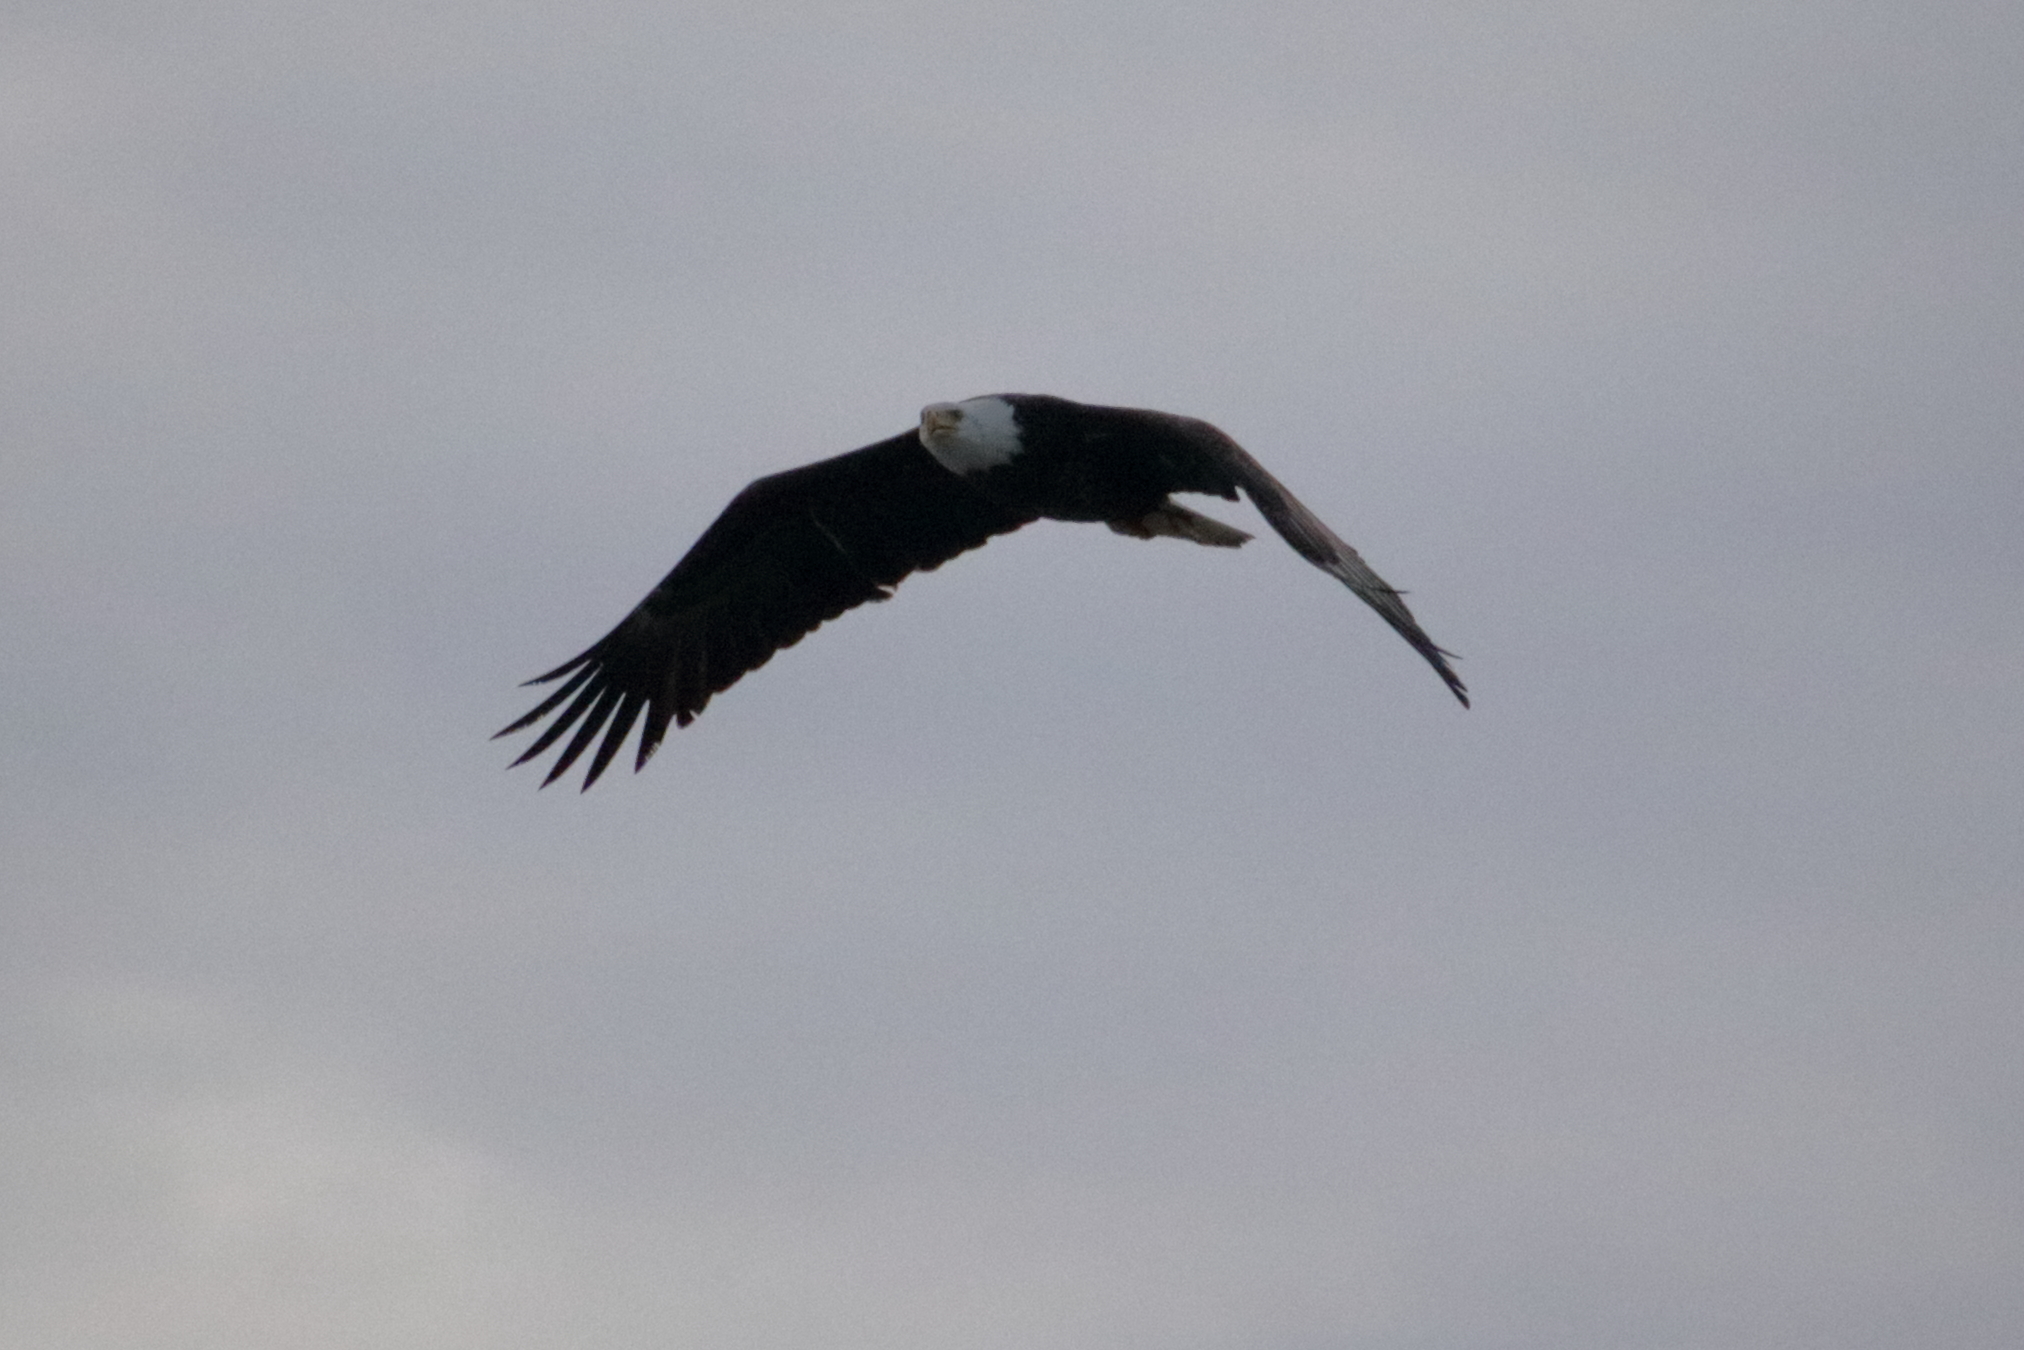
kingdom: Animalia
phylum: Chordata
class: Aves
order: Accipitriformes
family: Accipitridae
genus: Haliaeetus
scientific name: Haliaeetus leucocephalus
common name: Bald eagle
